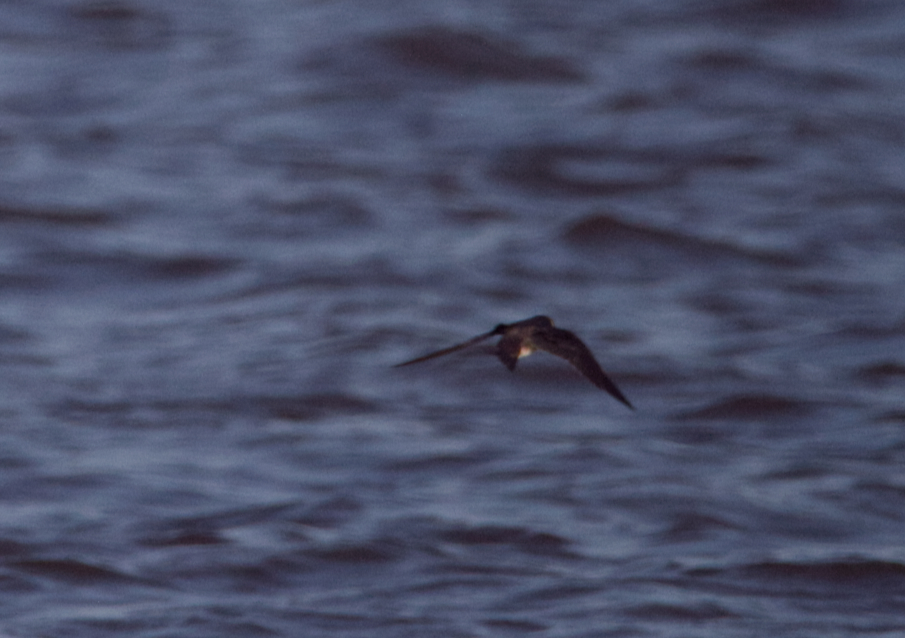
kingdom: Animalia
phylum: Chordata
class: Aves
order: Passeriformes
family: Hirundinidae
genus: Progne
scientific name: Progne subis
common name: Purple martin
